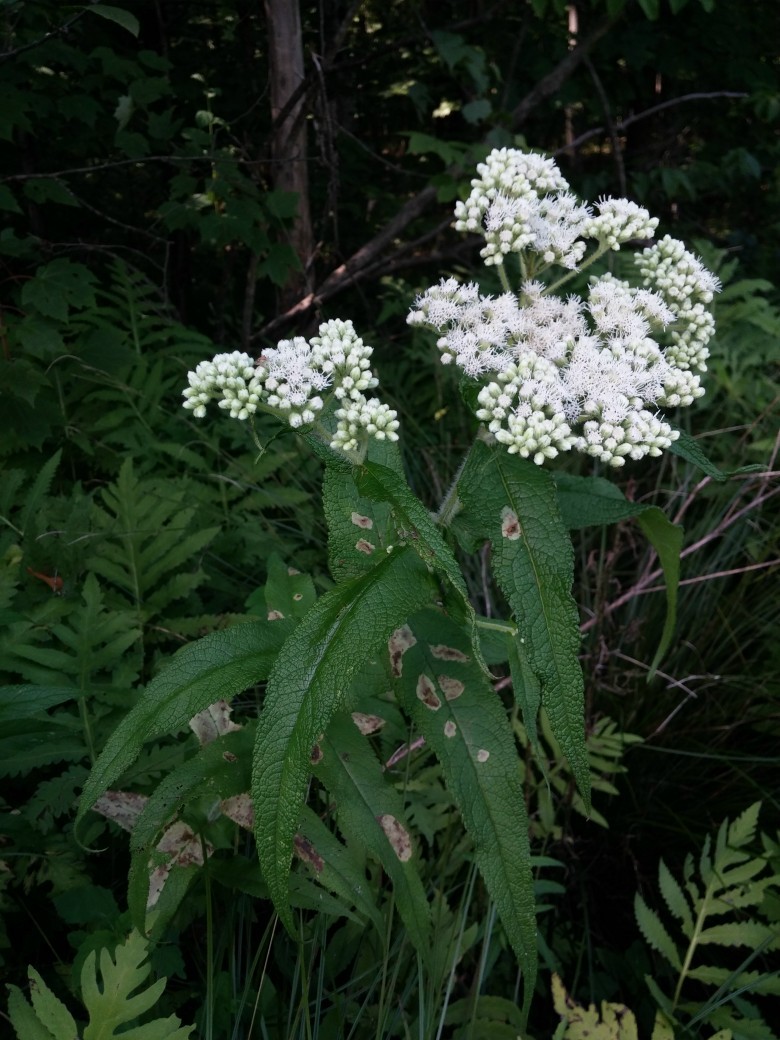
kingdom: Plantae
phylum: Tracheophyta
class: Magnoliopsida
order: Asterales
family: Asteraceae
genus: Eupatorium
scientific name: Eupatorium perfoliatum
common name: Boneset
